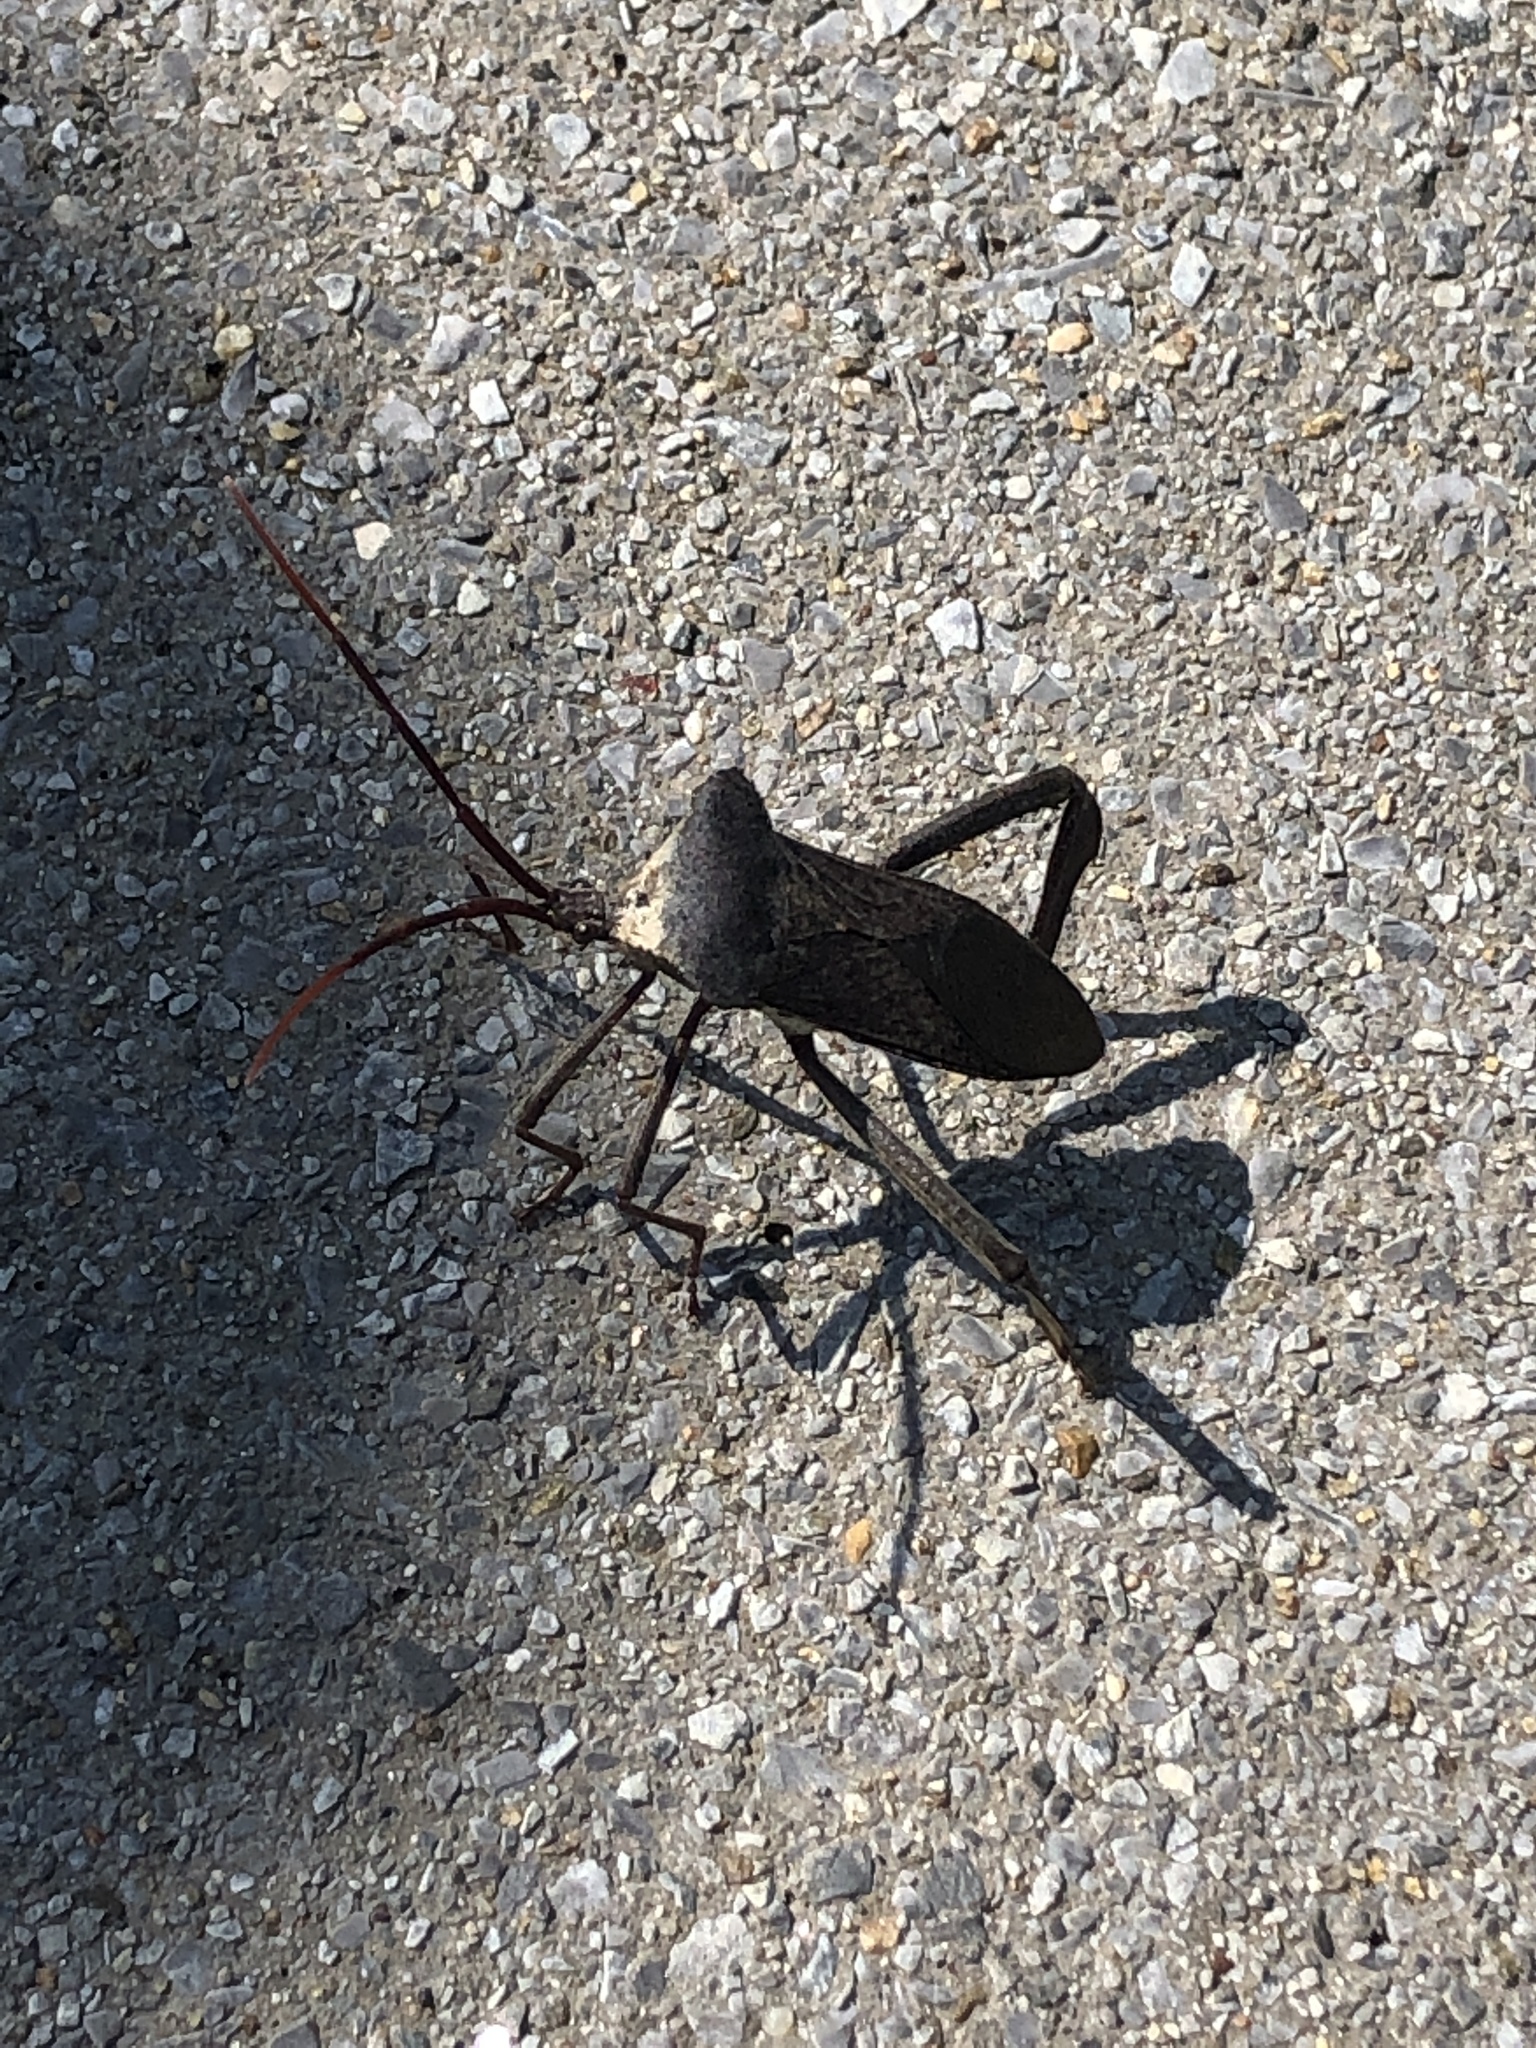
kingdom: Animalia
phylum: Arthropoda
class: Insecta
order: Hemiptera
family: Coreidae
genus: Acanthocephala
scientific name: Acanthocephala declivis
